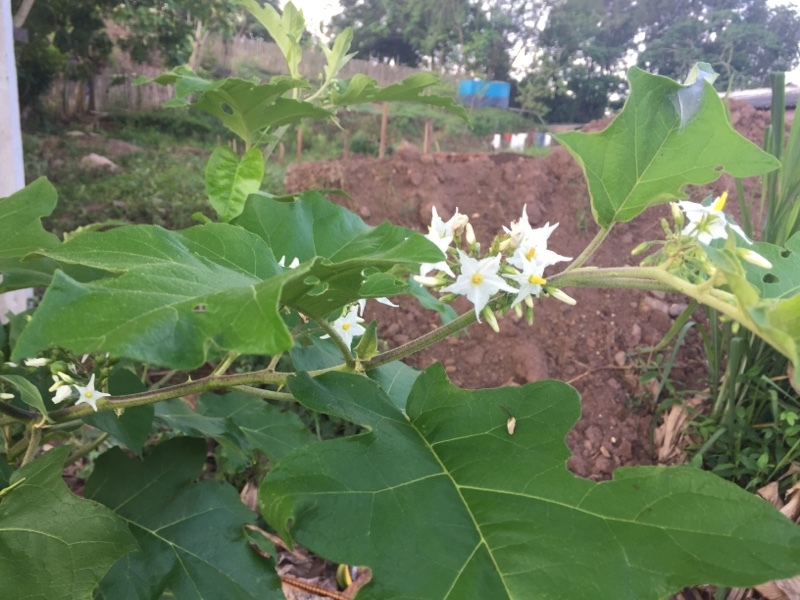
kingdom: Plantae
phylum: Tracheophyta
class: Magnoliopsida
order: Solanales
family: Solanaceae
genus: Solanum
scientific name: Solanum torvum
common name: Turkey berry
